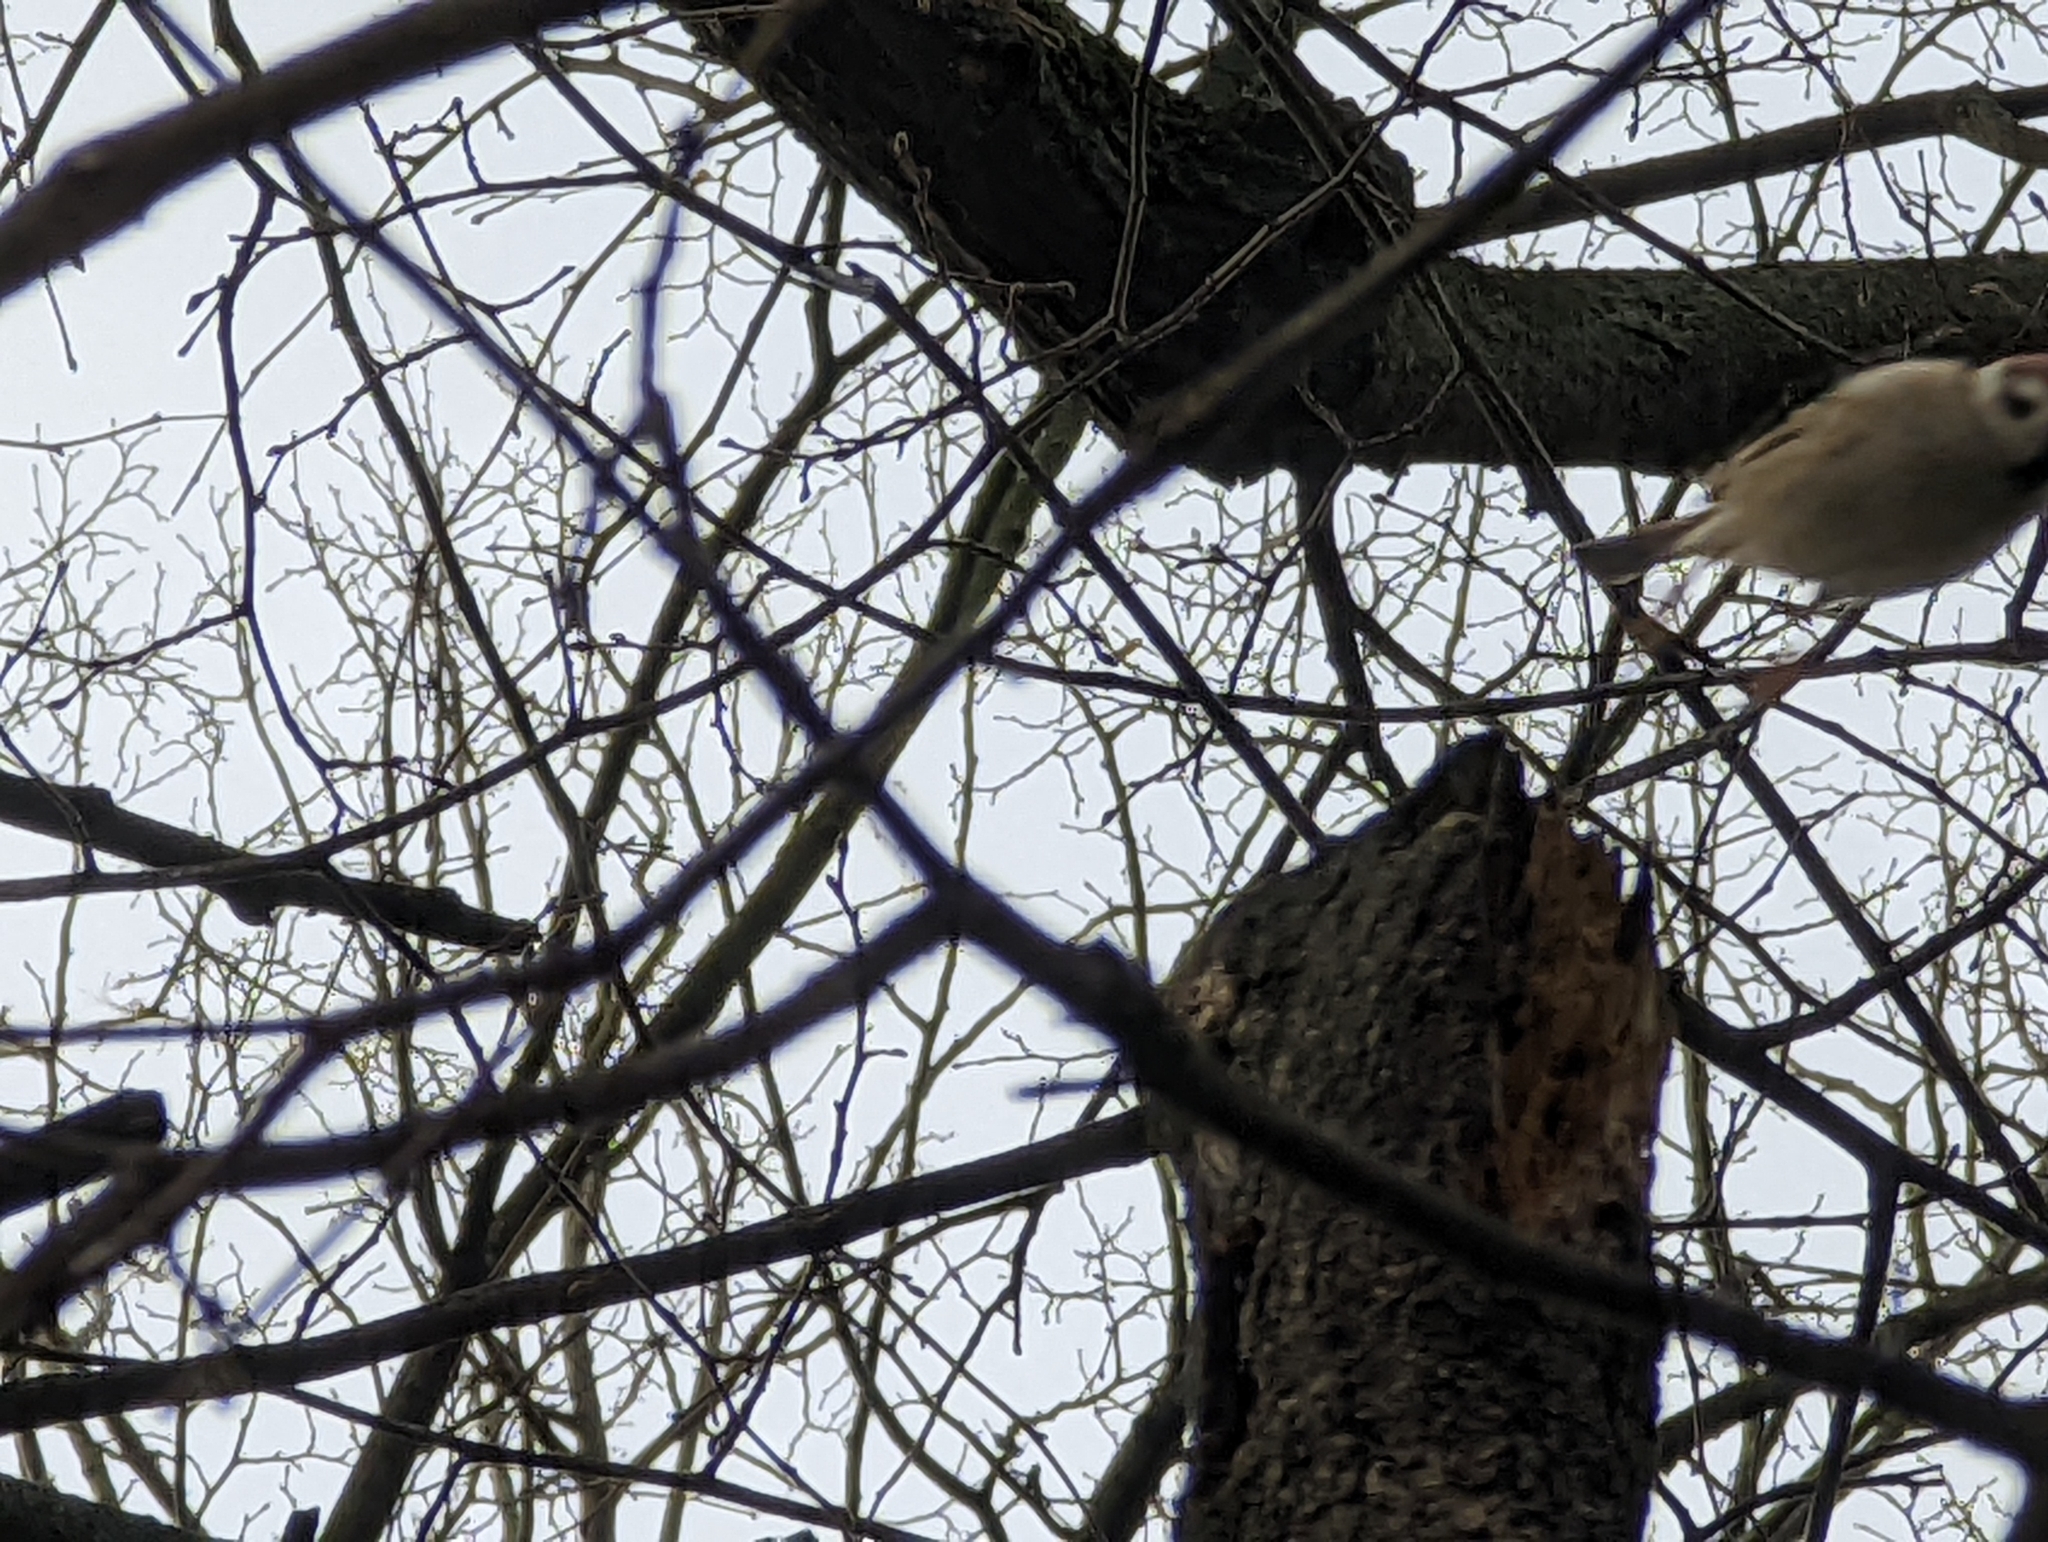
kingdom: Animalia
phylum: Chordata
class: Aves
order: Passeriformes
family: Passeridae
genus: Passer
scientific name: Passer montanus
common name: Eurasian tree sparrow
